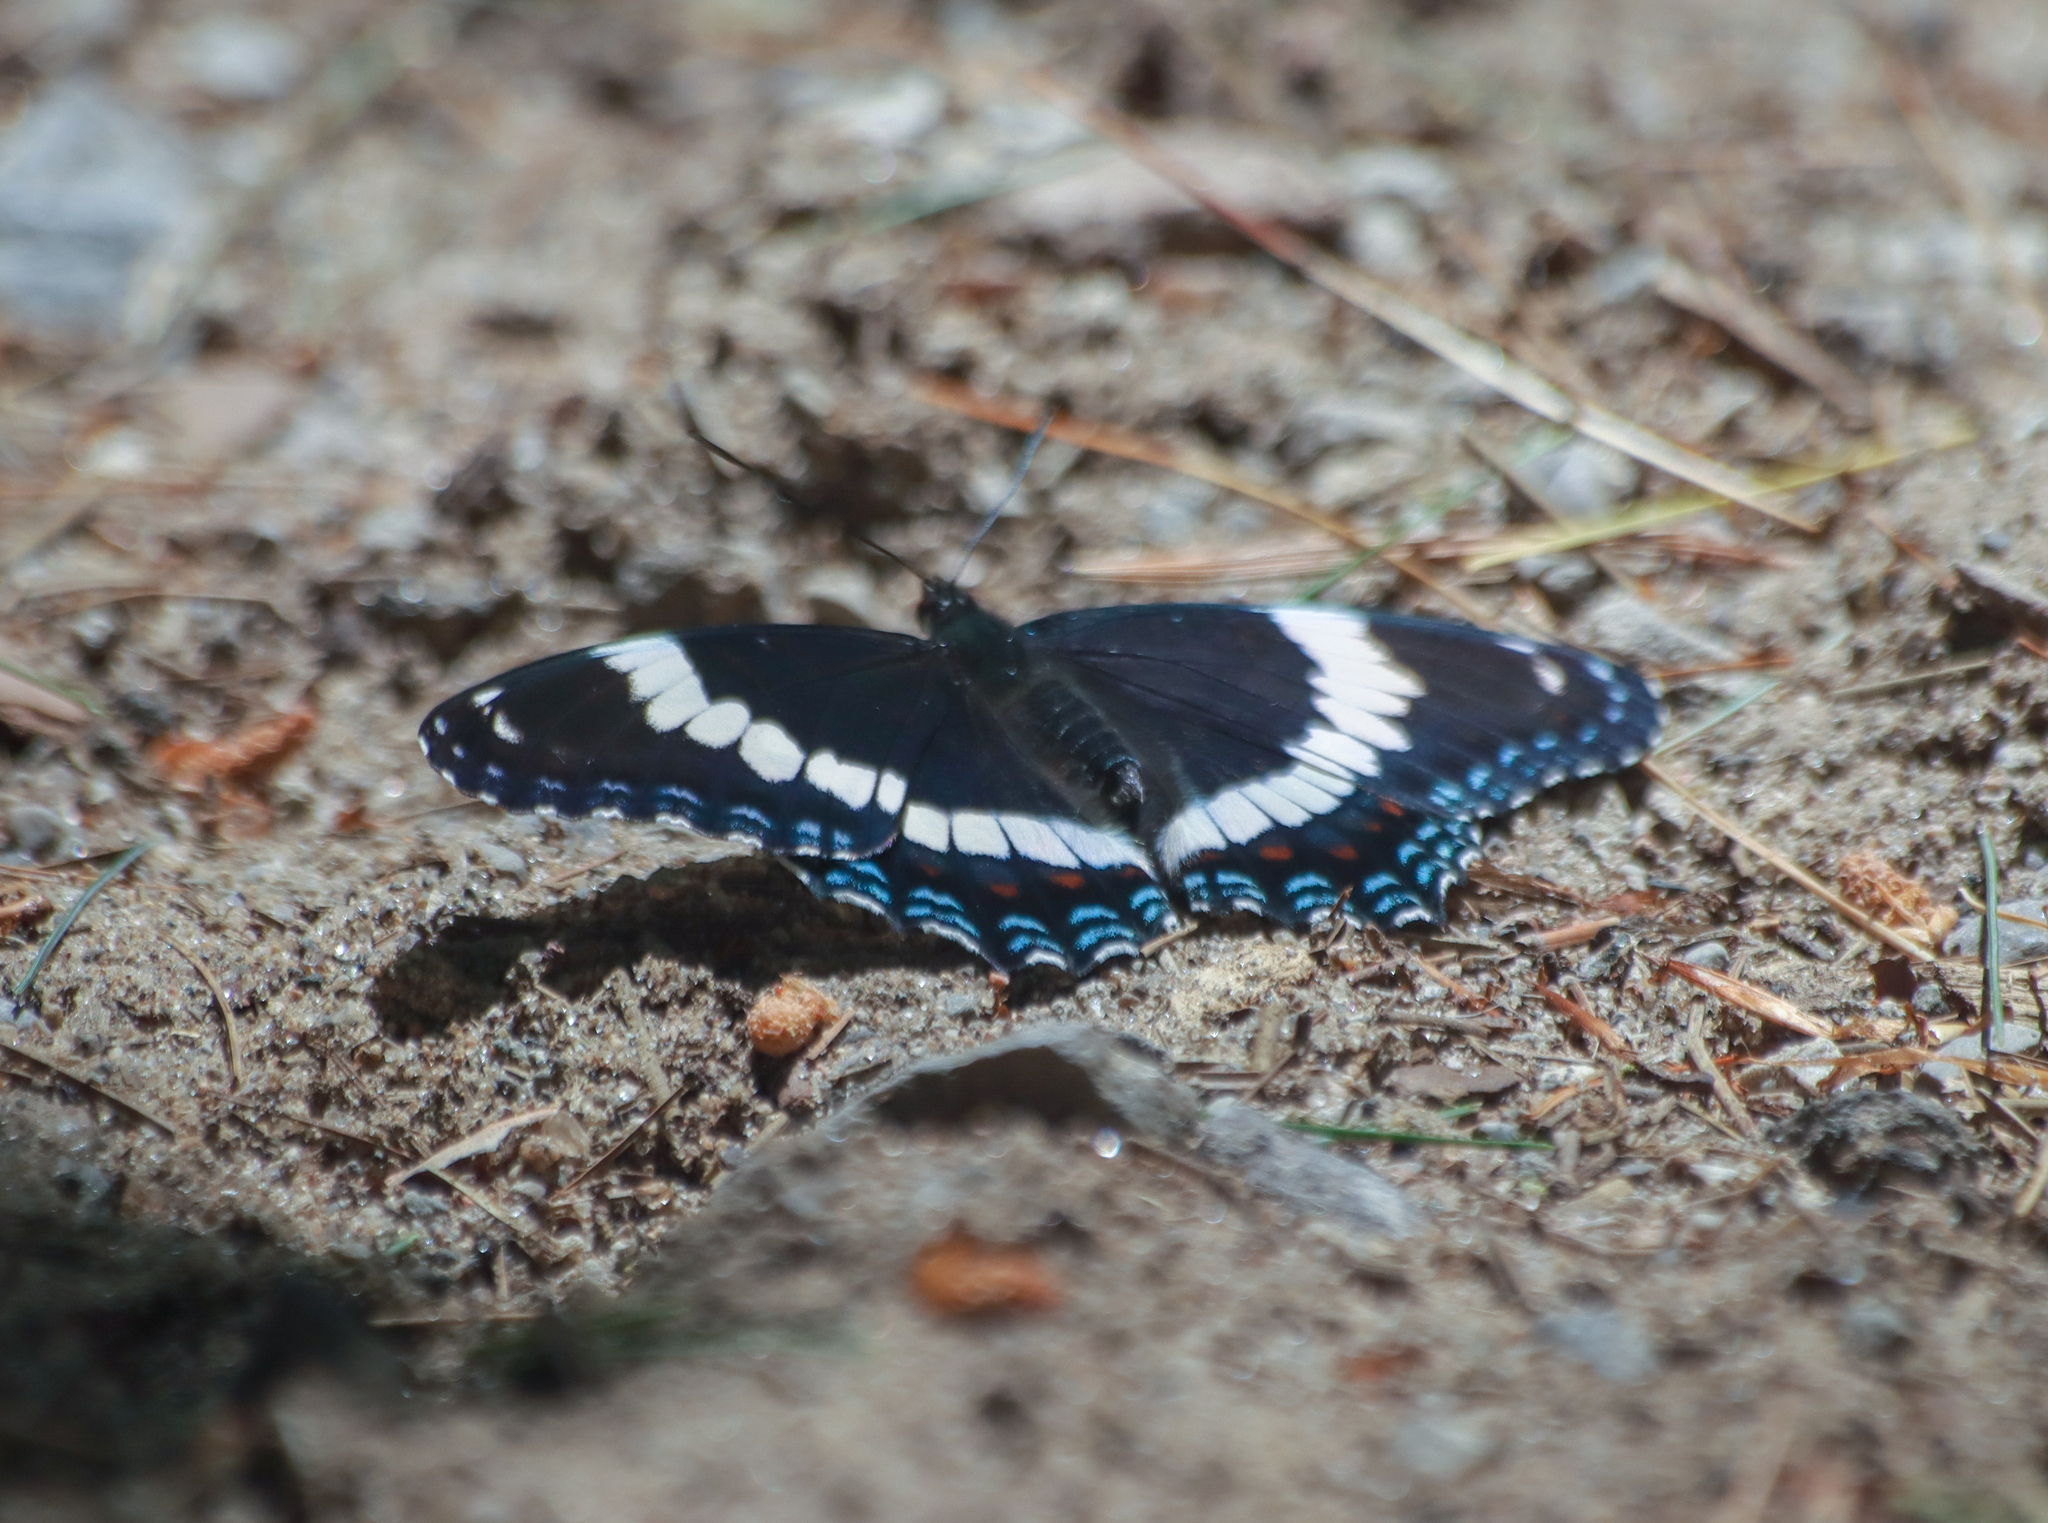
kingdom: Animalia
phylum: Arthropoda
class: Insecta
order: Lepidoptera
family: Nymphalidae
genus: Limenitis
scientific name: Limenitis arthemis
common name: Red-spotted admiral
